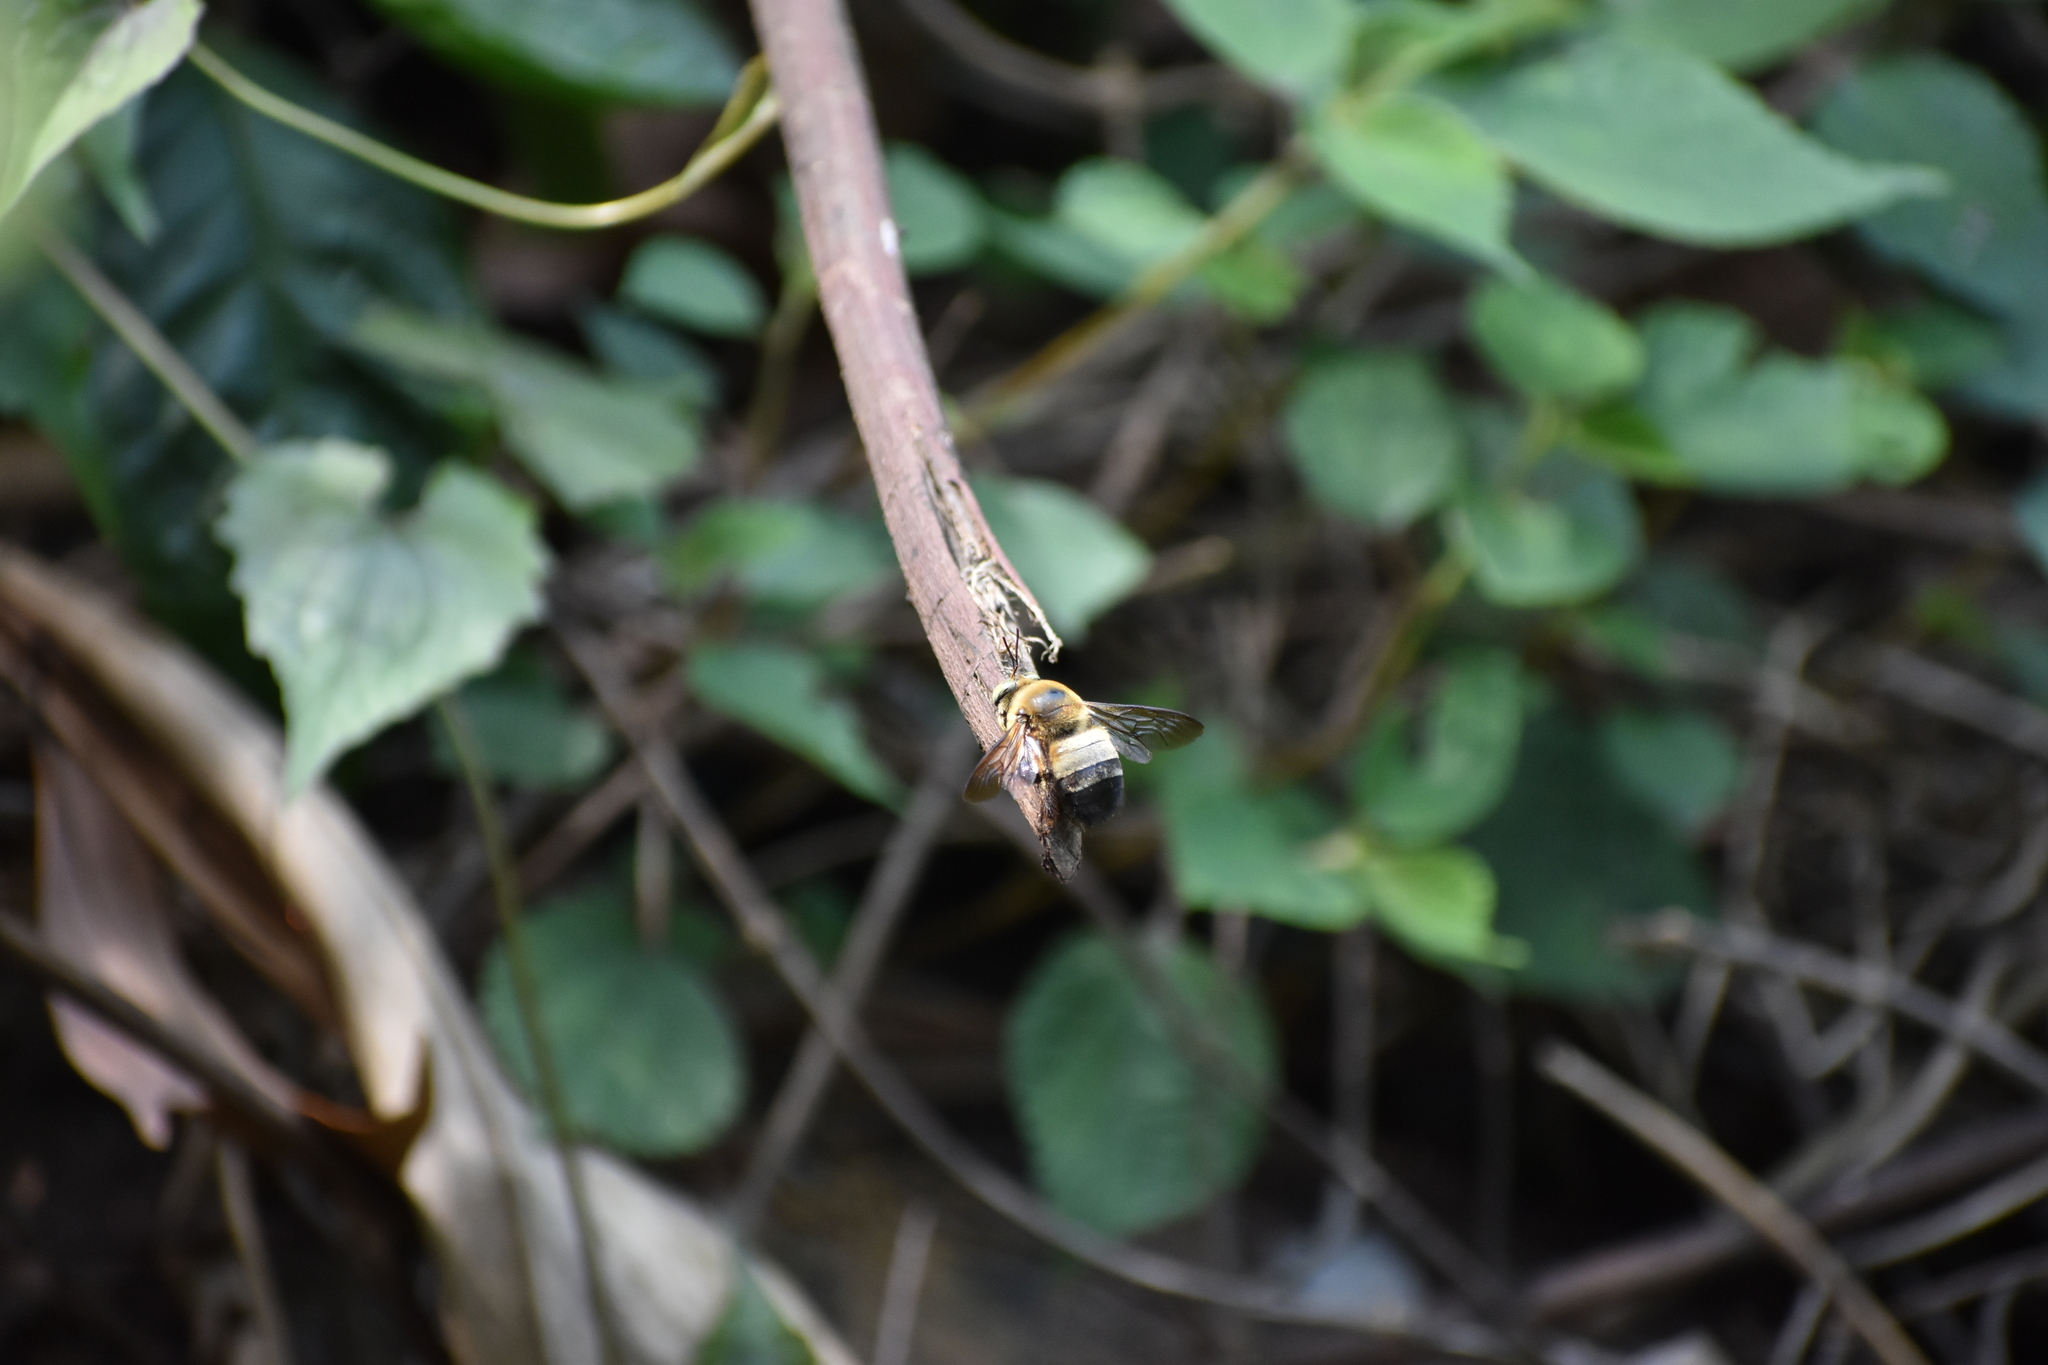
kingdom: Animalia
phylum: Arthropoda
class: Insecta
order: Hymenoptera
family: Apidae
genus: Xylocopa
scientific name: Xylocopa dejeanii
